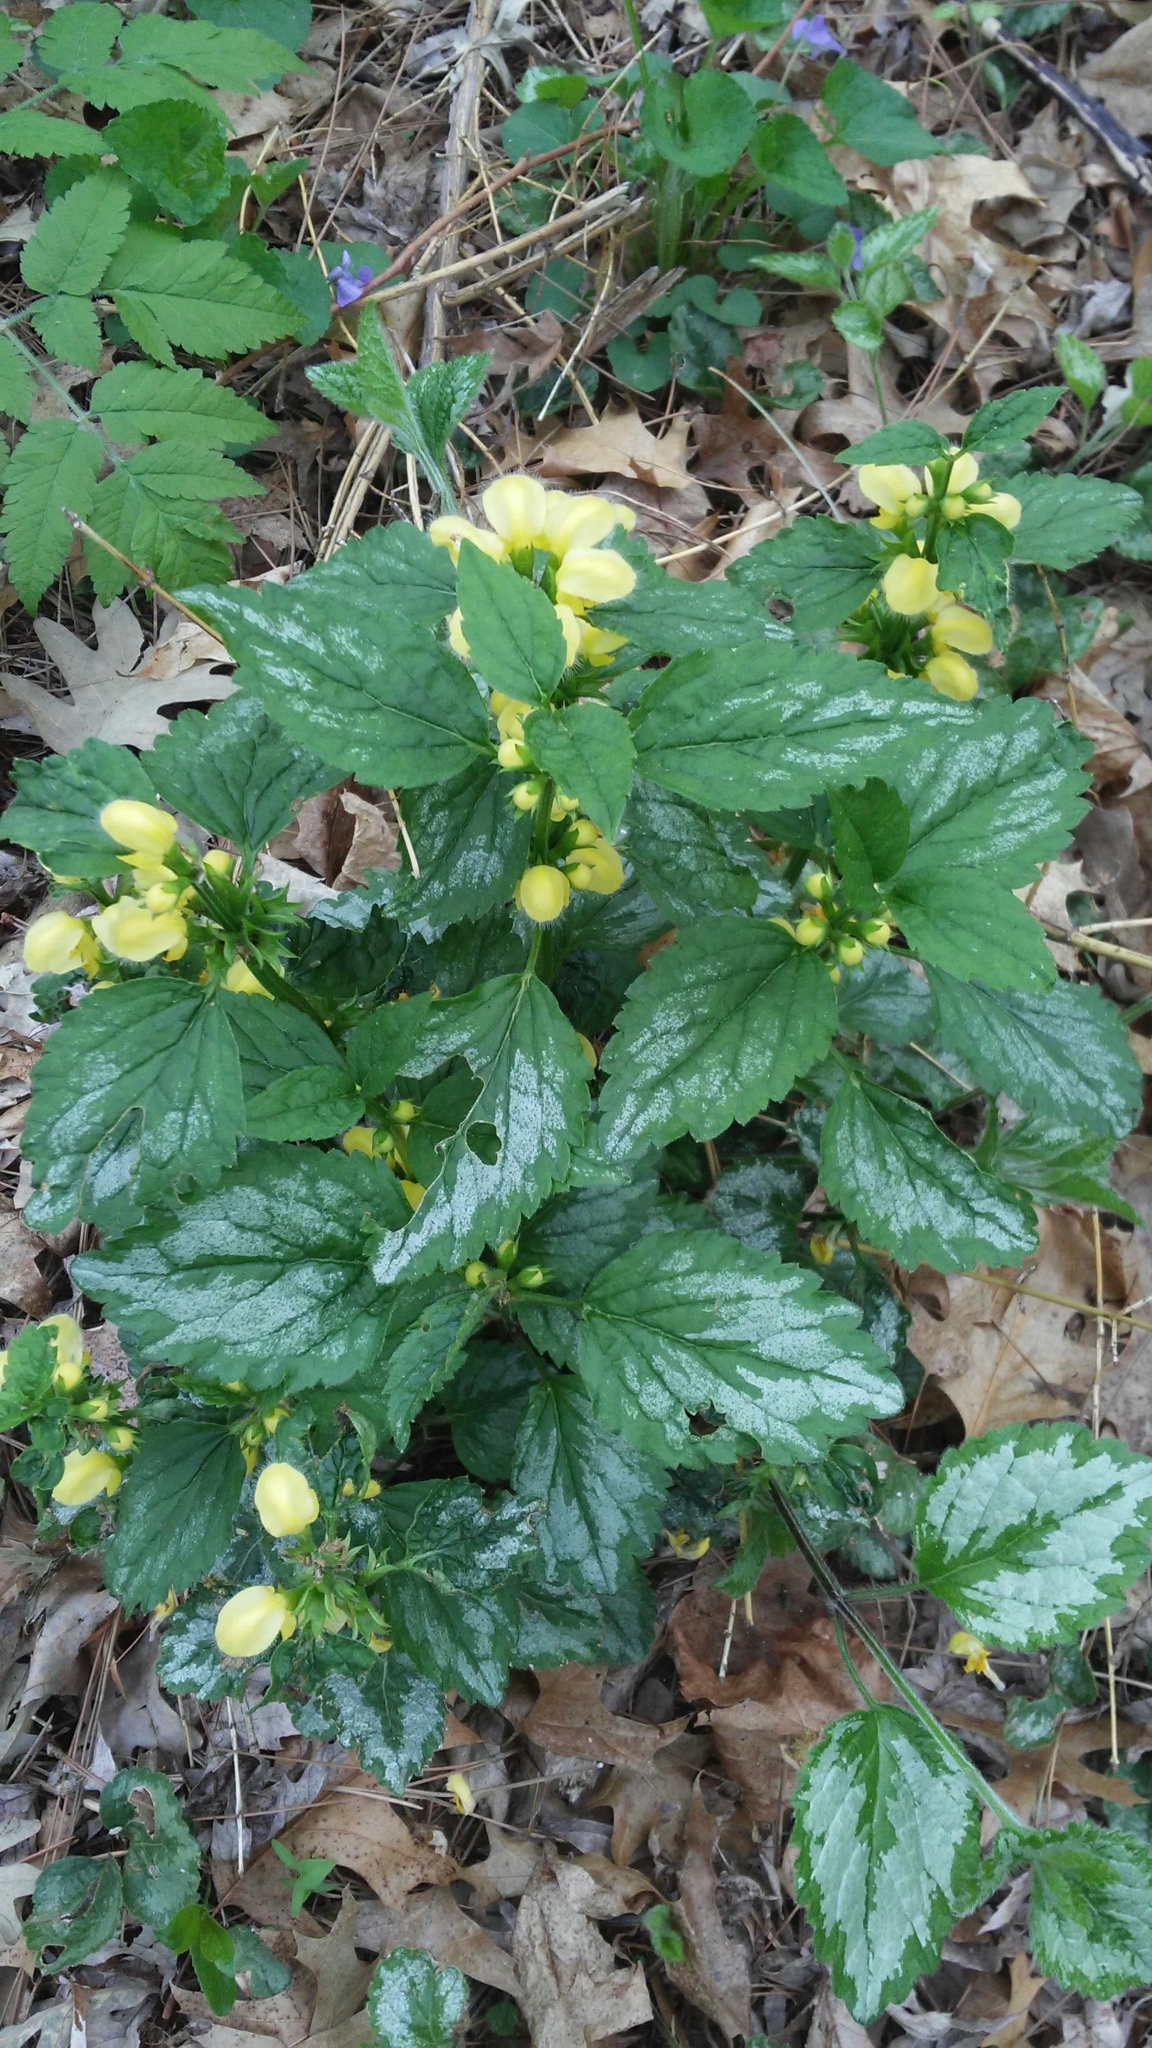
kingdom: Plantae
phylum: Tracheophyta
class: Magnoliopsida
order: Lamiales
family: Lamiaceae
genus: Lamium
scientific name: Lamium galeobdolon
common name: Yellow archangel
